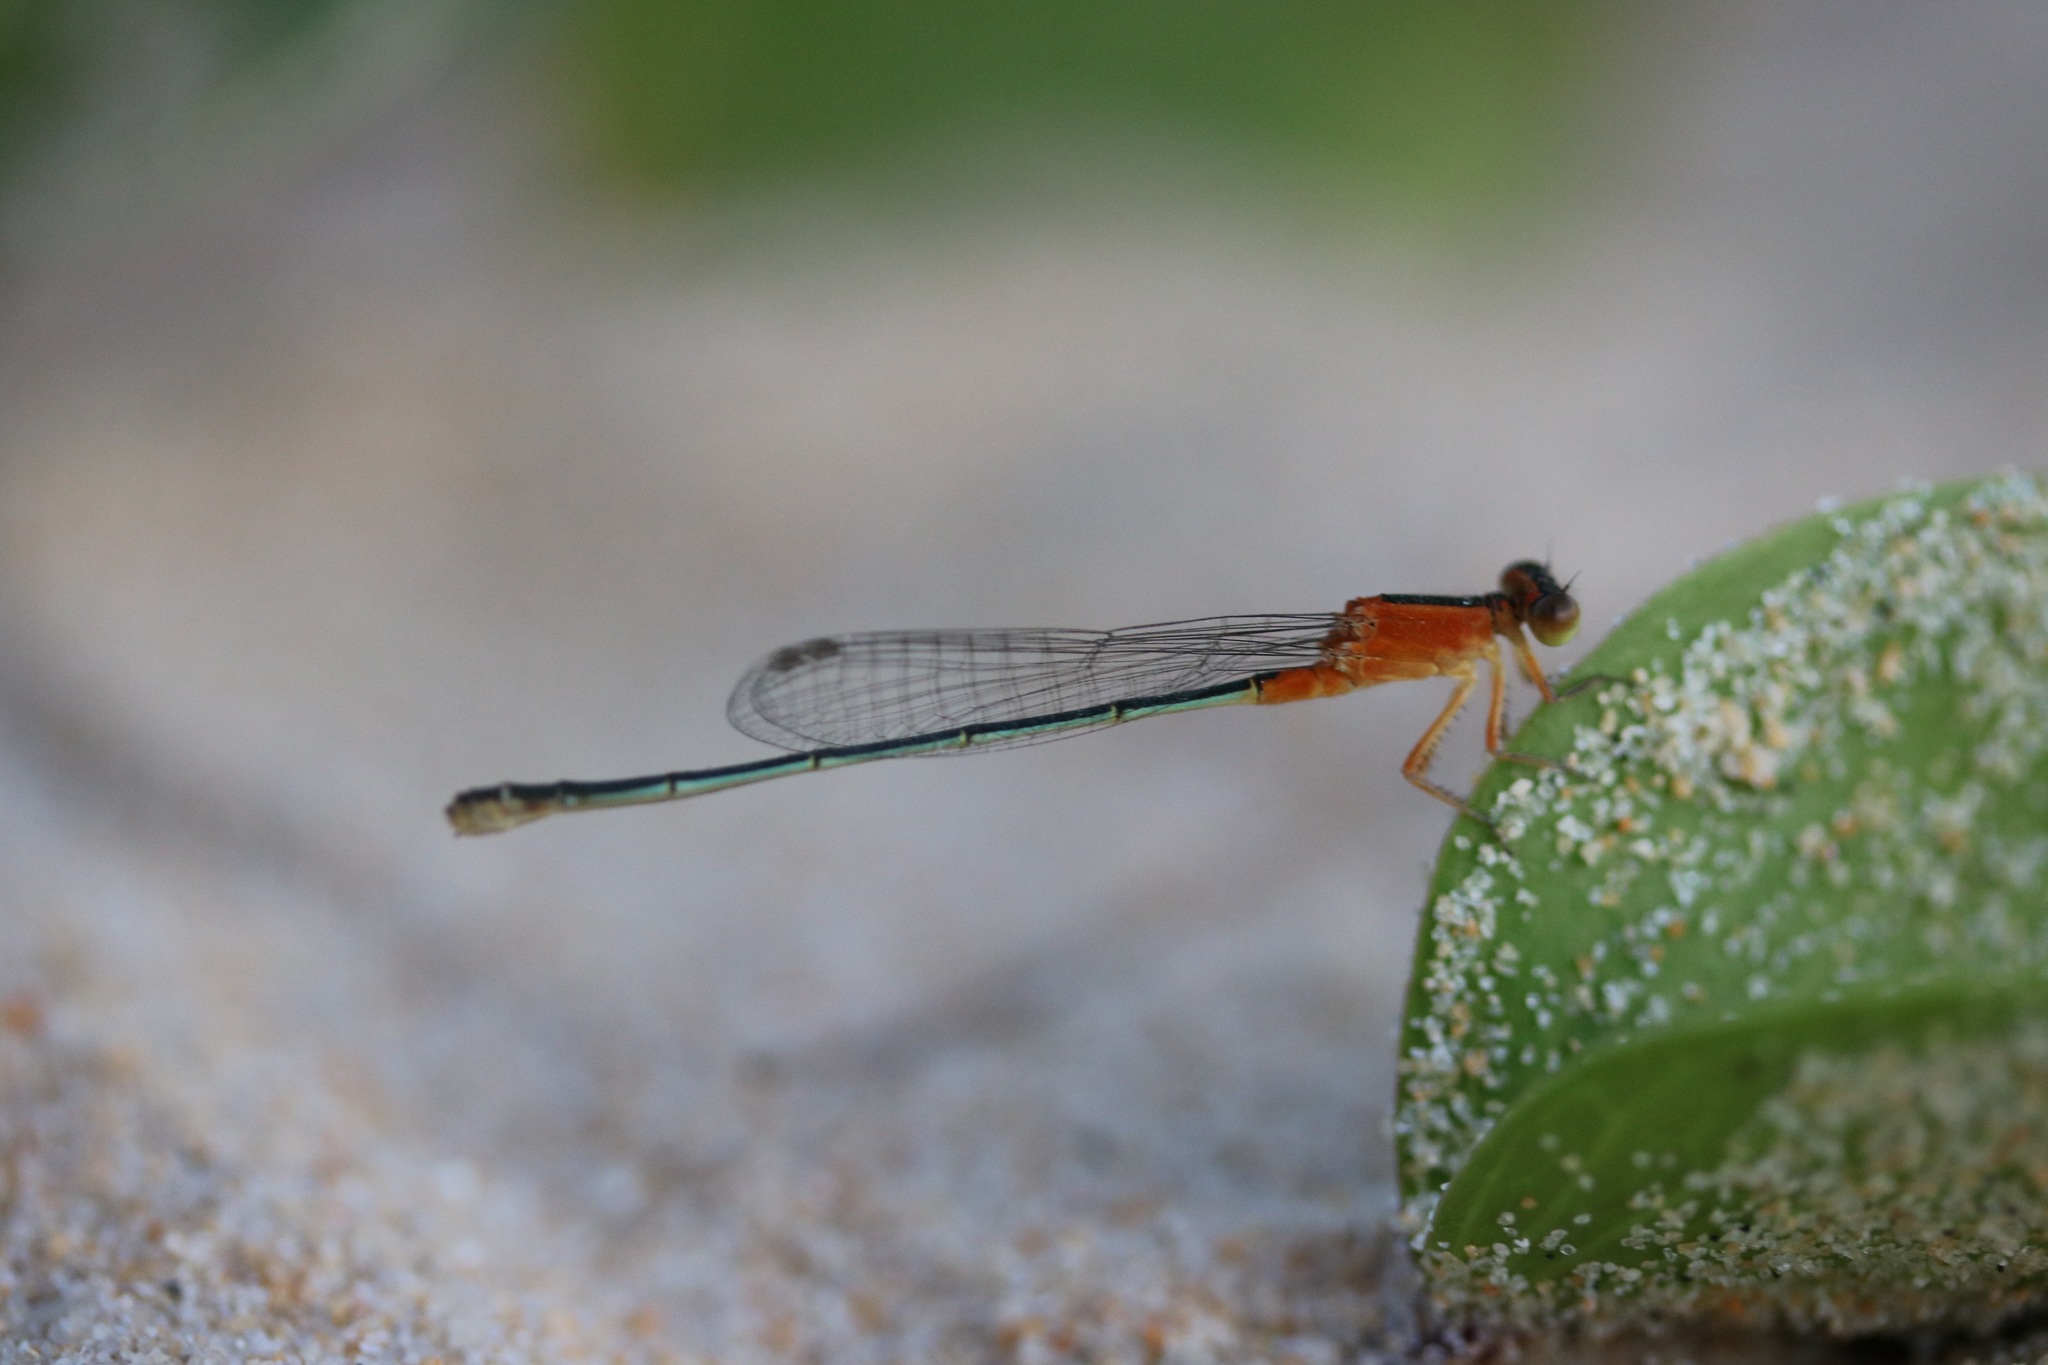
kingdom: Animalia
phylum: Arthropoda
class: Insecta
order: Odonata
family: Coenagrionidae
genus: Ischnura
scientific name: Ischnura senegalensis
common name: Tropical bluetail
